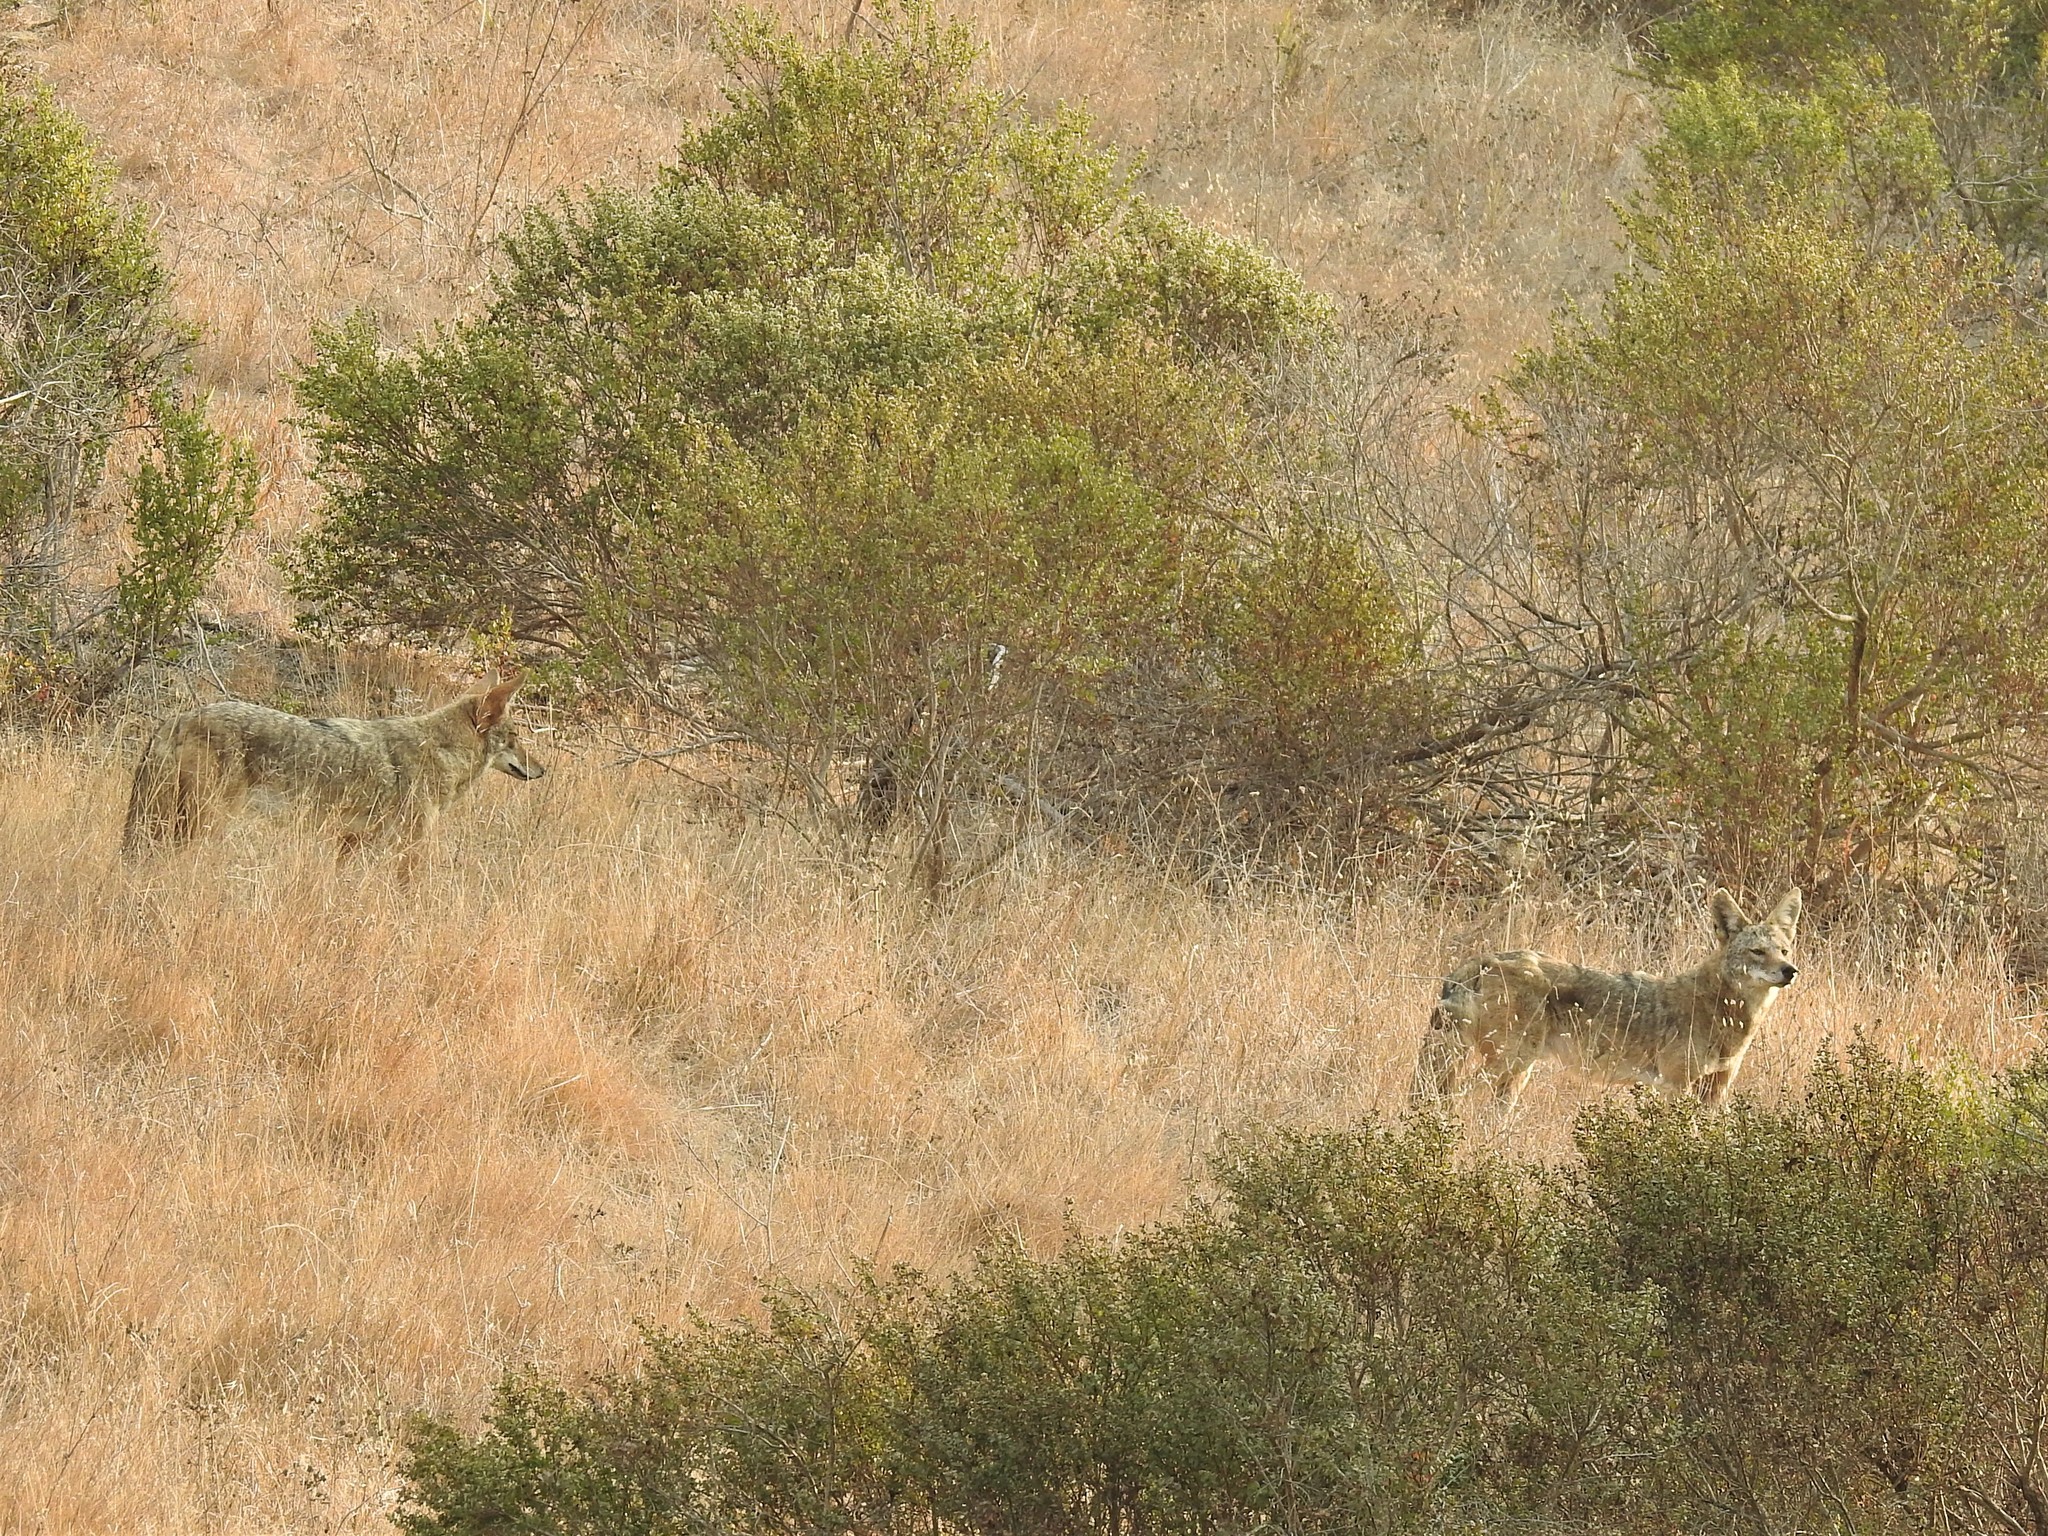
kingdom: Animalia
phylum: Chordata
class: Mammalia
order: Carnivora
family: Canidae
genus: Canis
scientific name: Canis latrans
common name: Coyote
